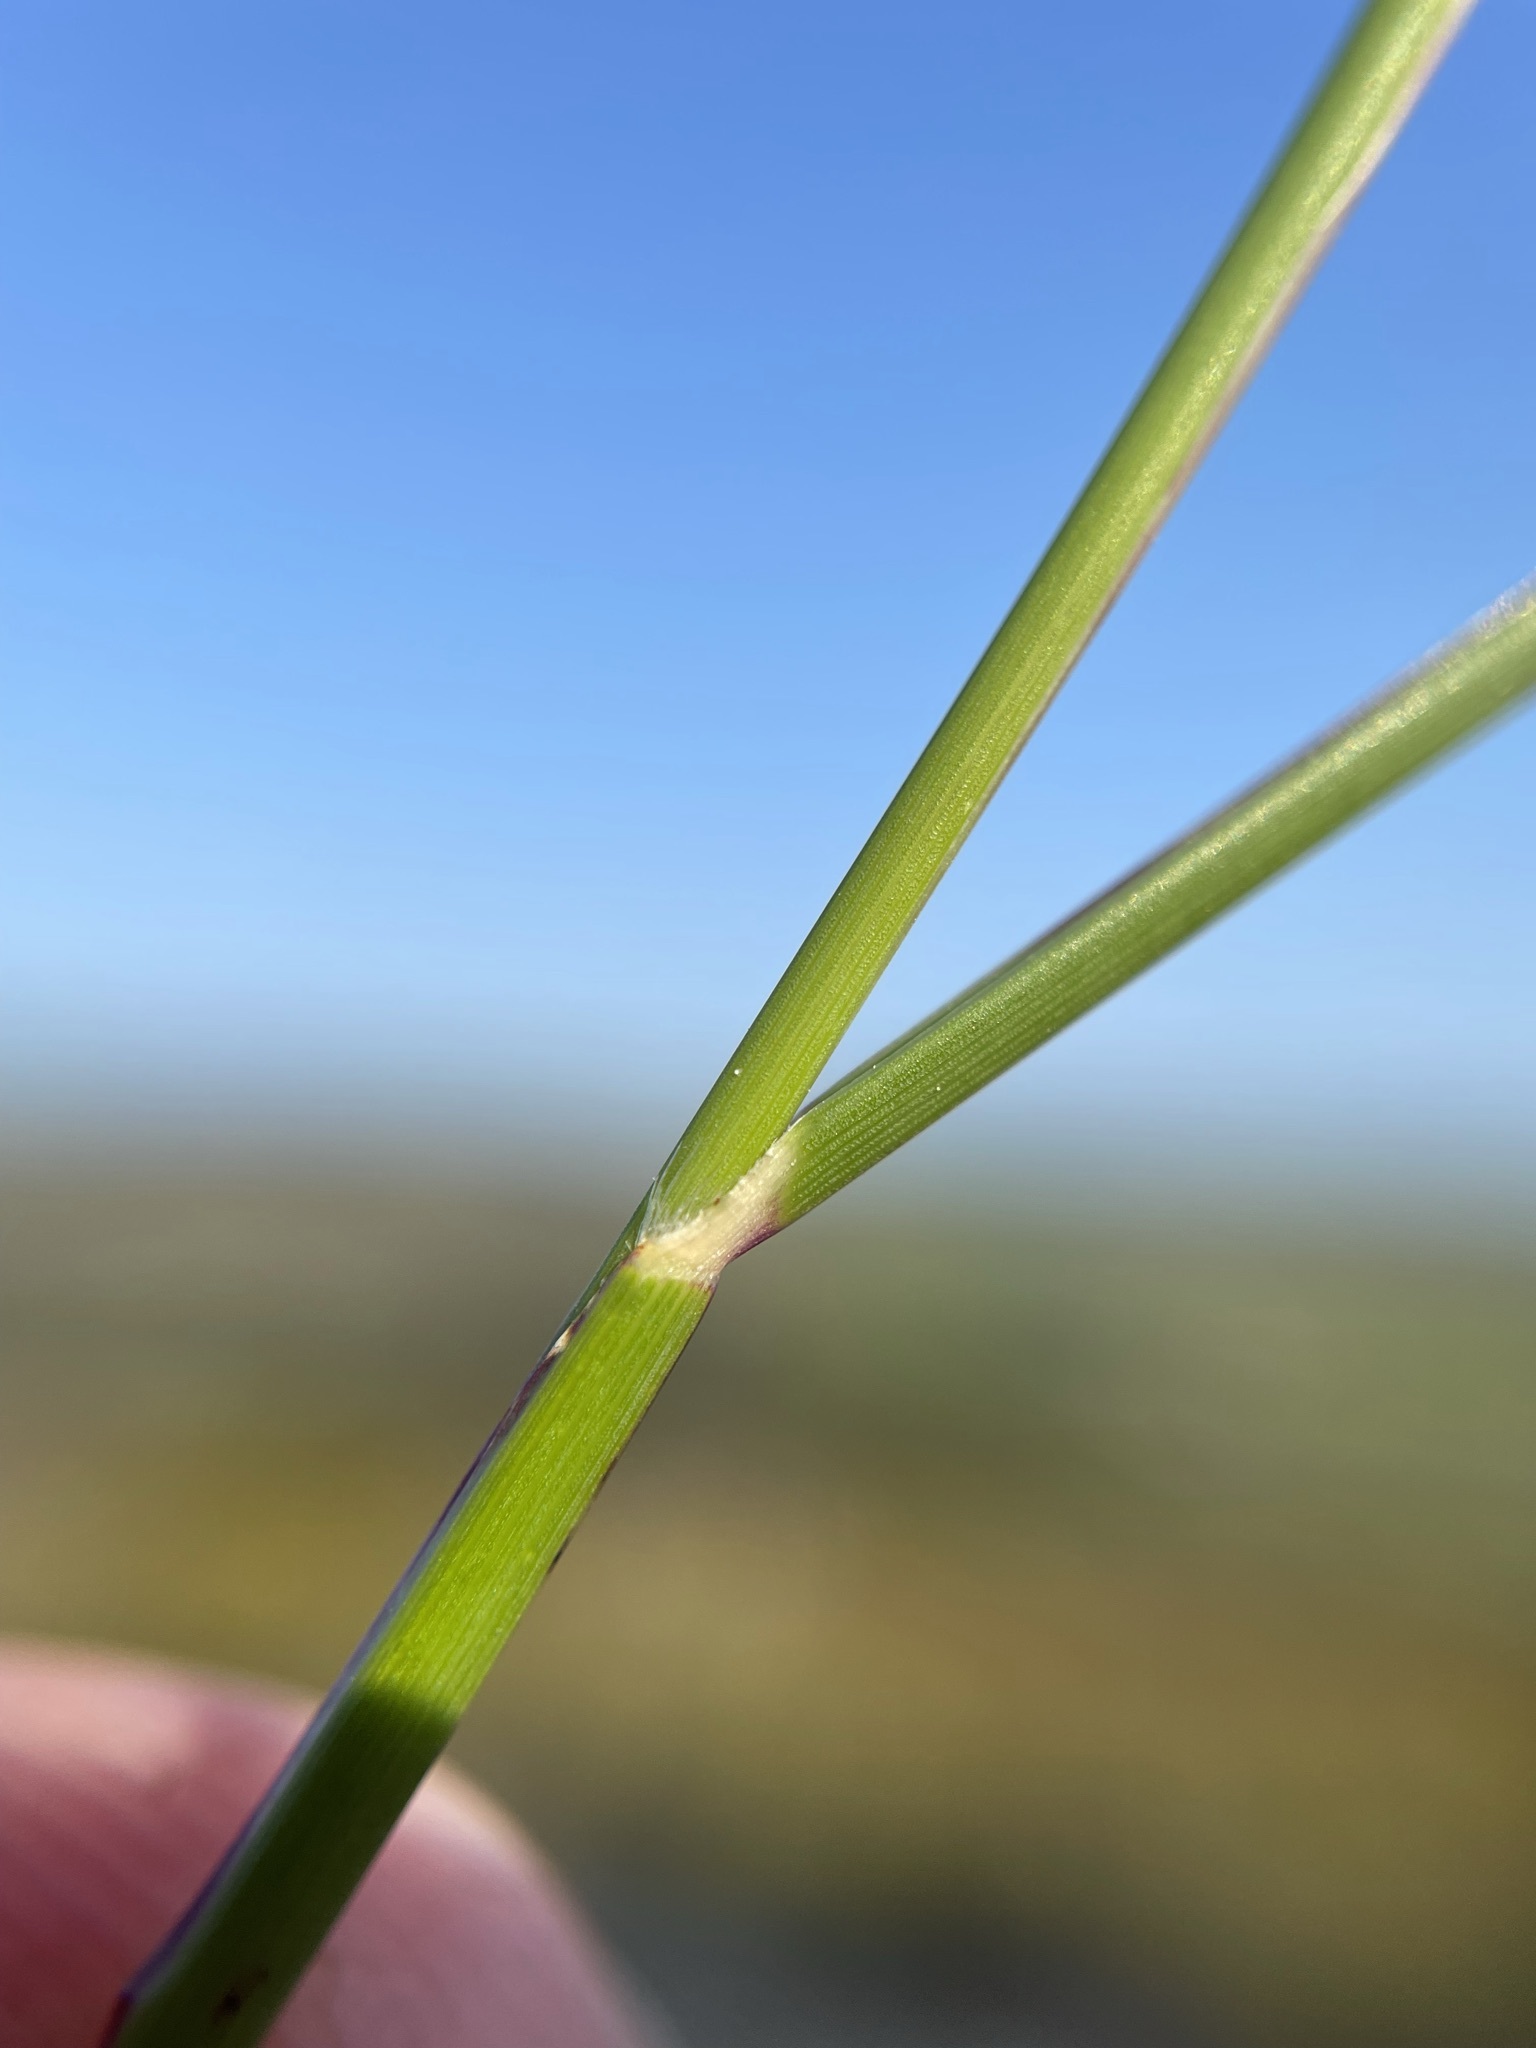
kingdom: Plantae
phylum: Tracheophyta
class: Liliopsida
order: Poales
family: Poaceae
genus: Tribolium
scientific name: Tribolium uniolae
